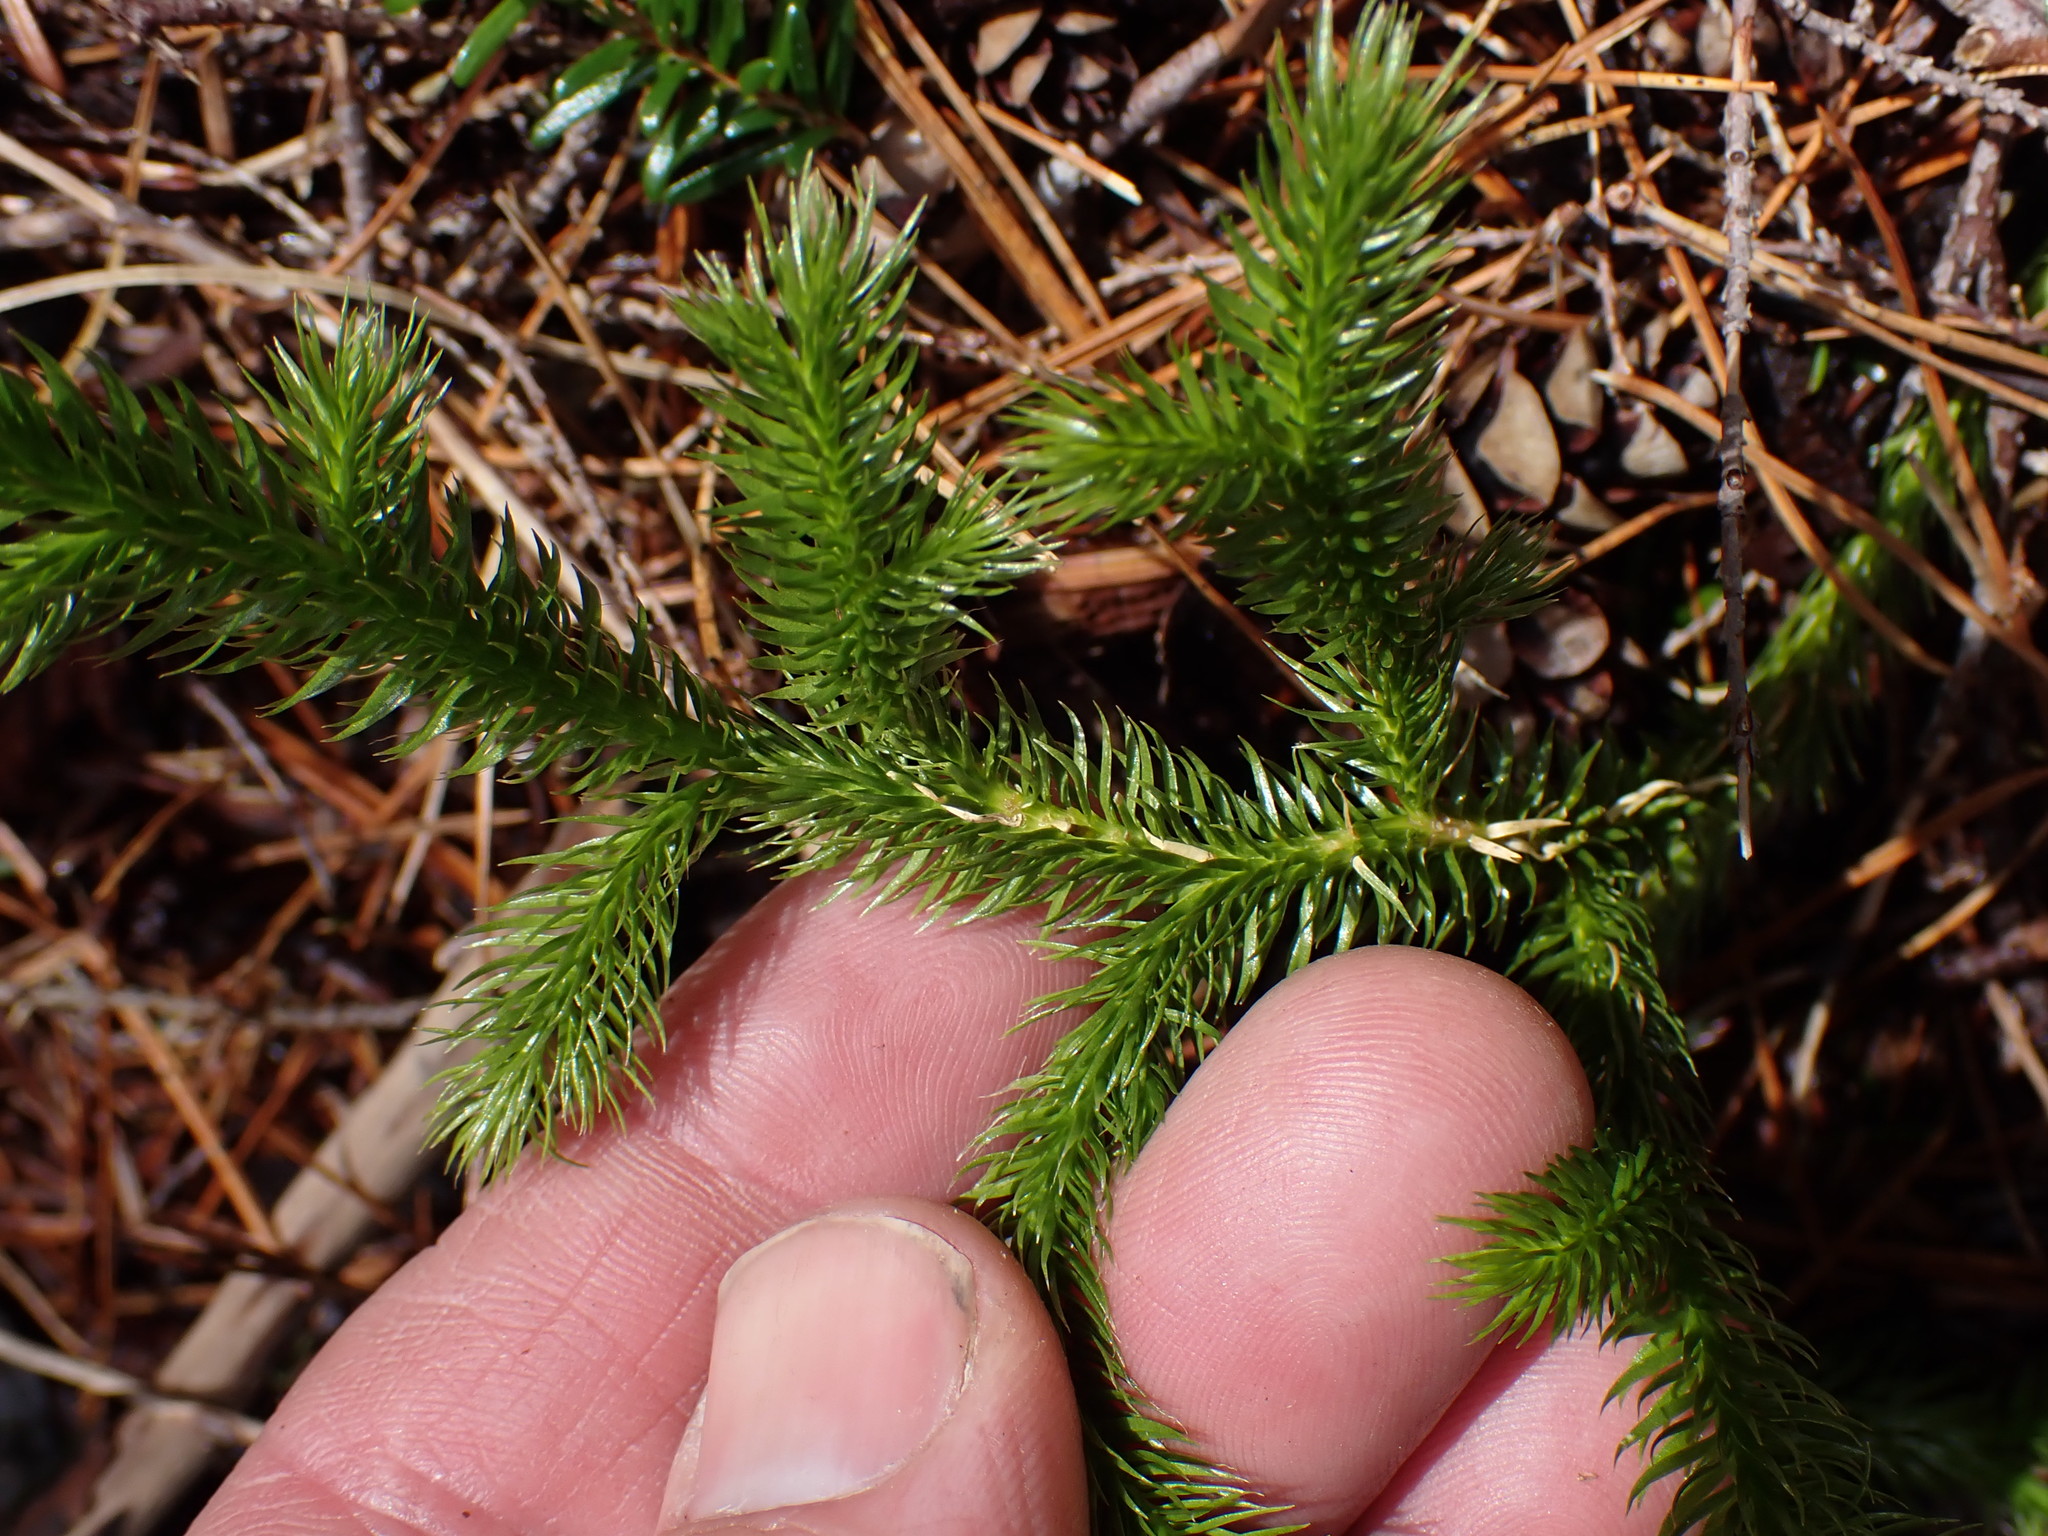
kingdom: Plantae
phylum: Tracheophyta
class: Lycopodiopsida
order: Lycopodiales
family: Lycopodiaceae
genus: Lycopodium
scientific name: Lycopodium clavatum
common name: Stag's-horn clubmoss
